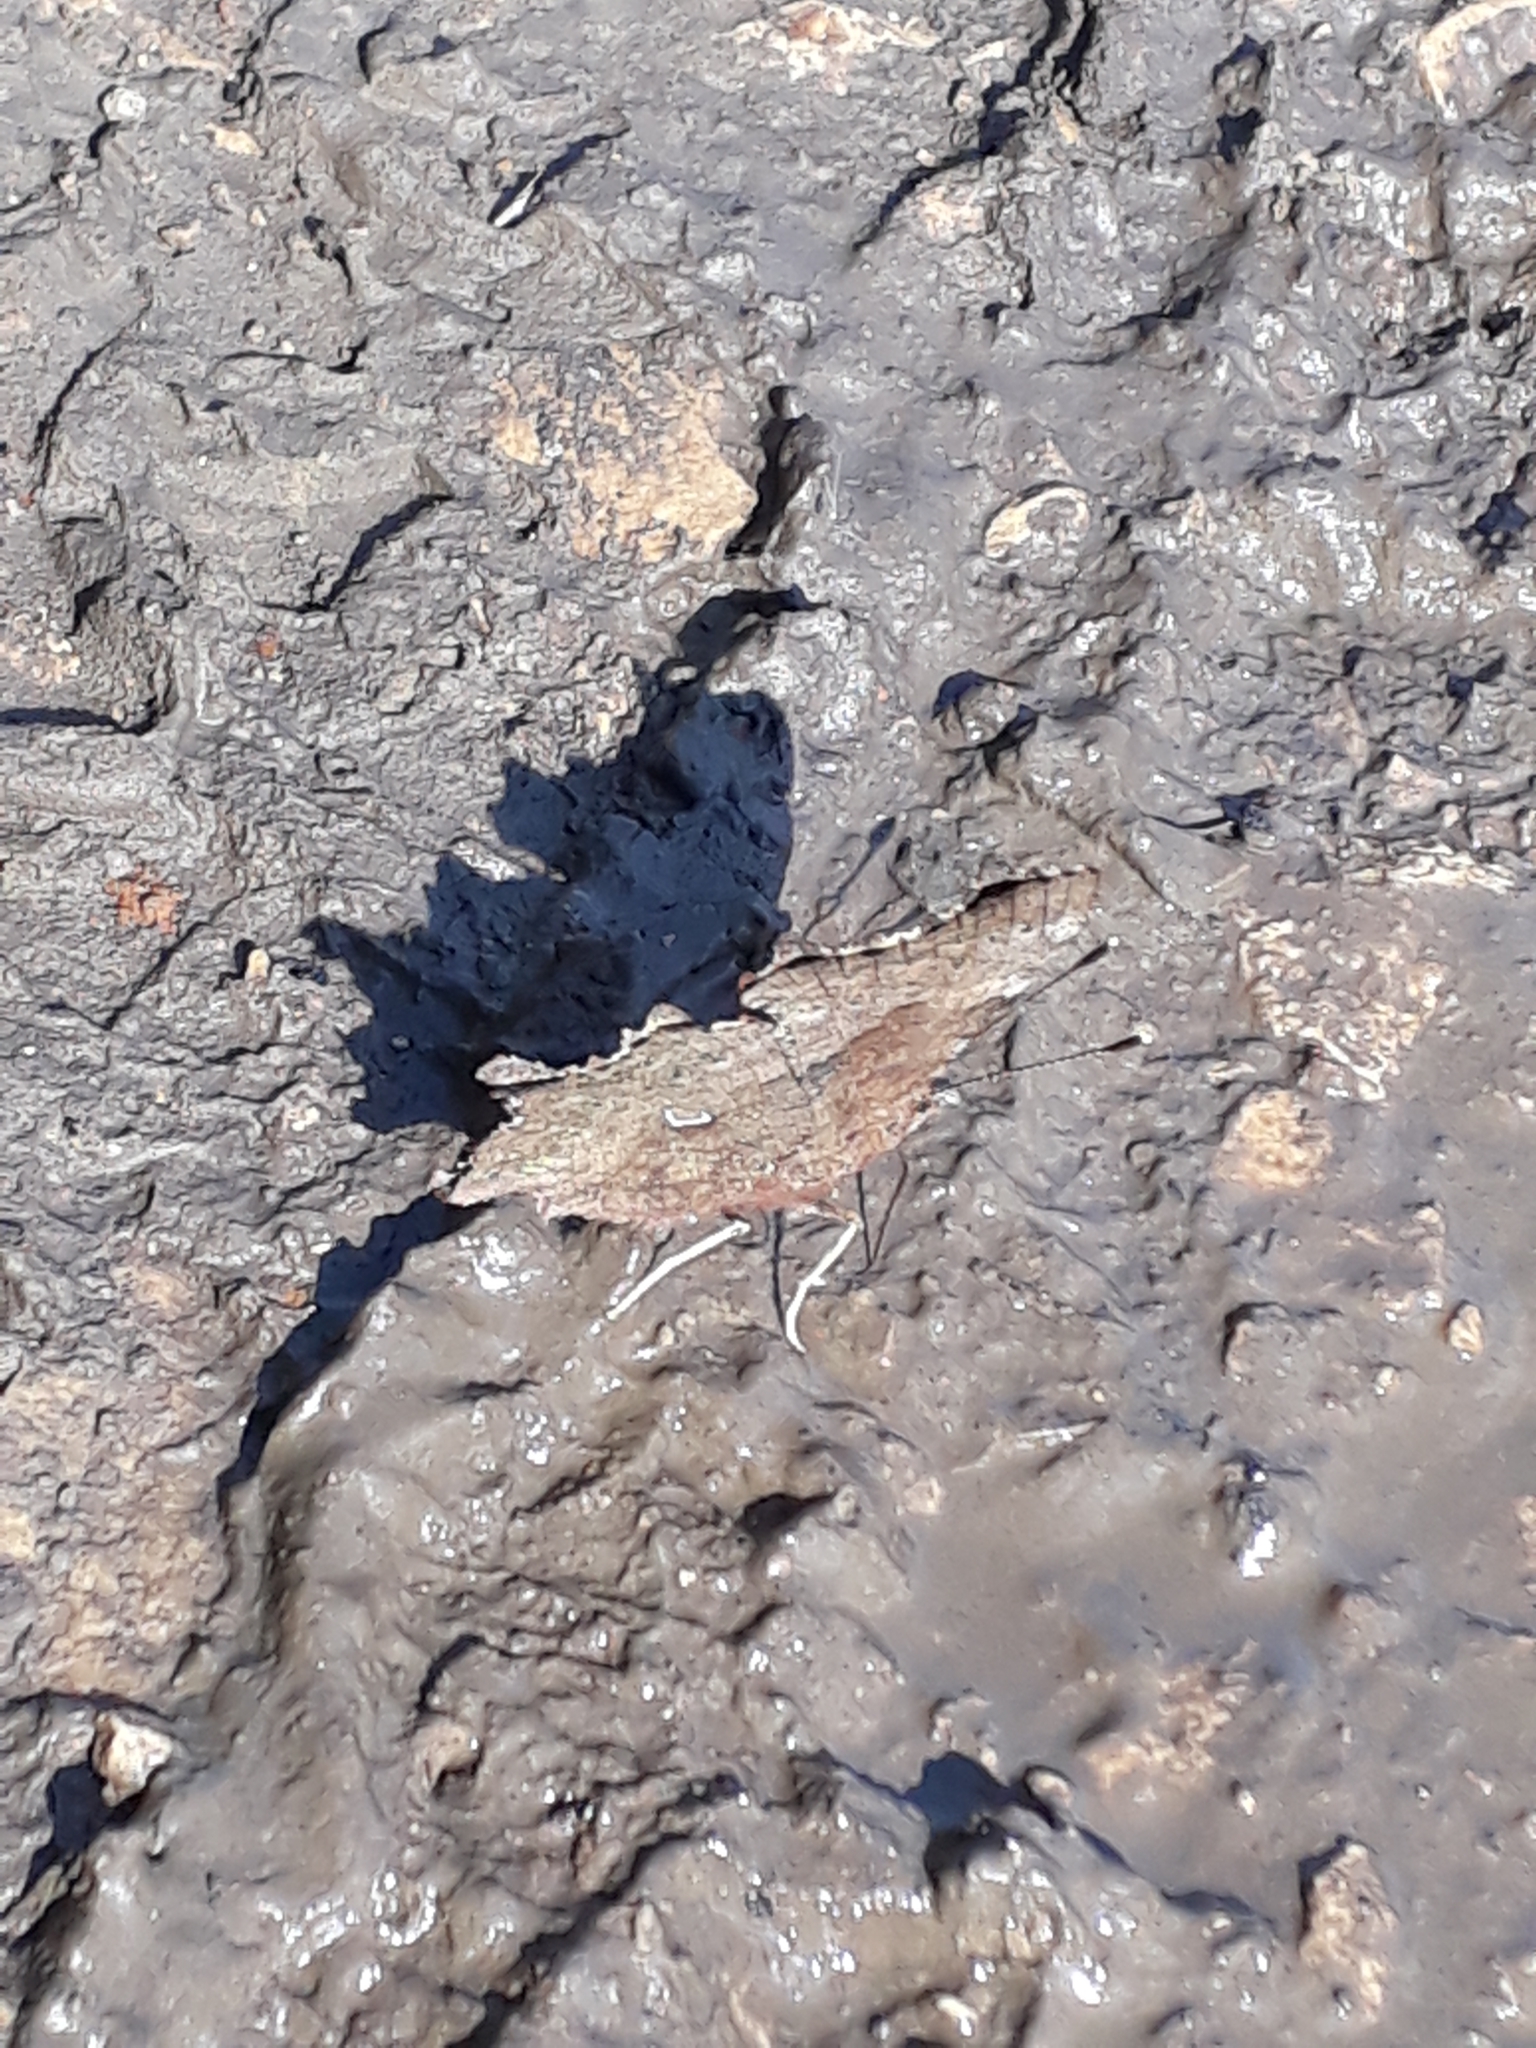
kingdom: Animalia
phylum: Arthropoda
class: Insecta
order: Lepidoptera
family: Nymphalidae
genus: Polygonia
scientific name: Polygonia c-album
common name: Comma
